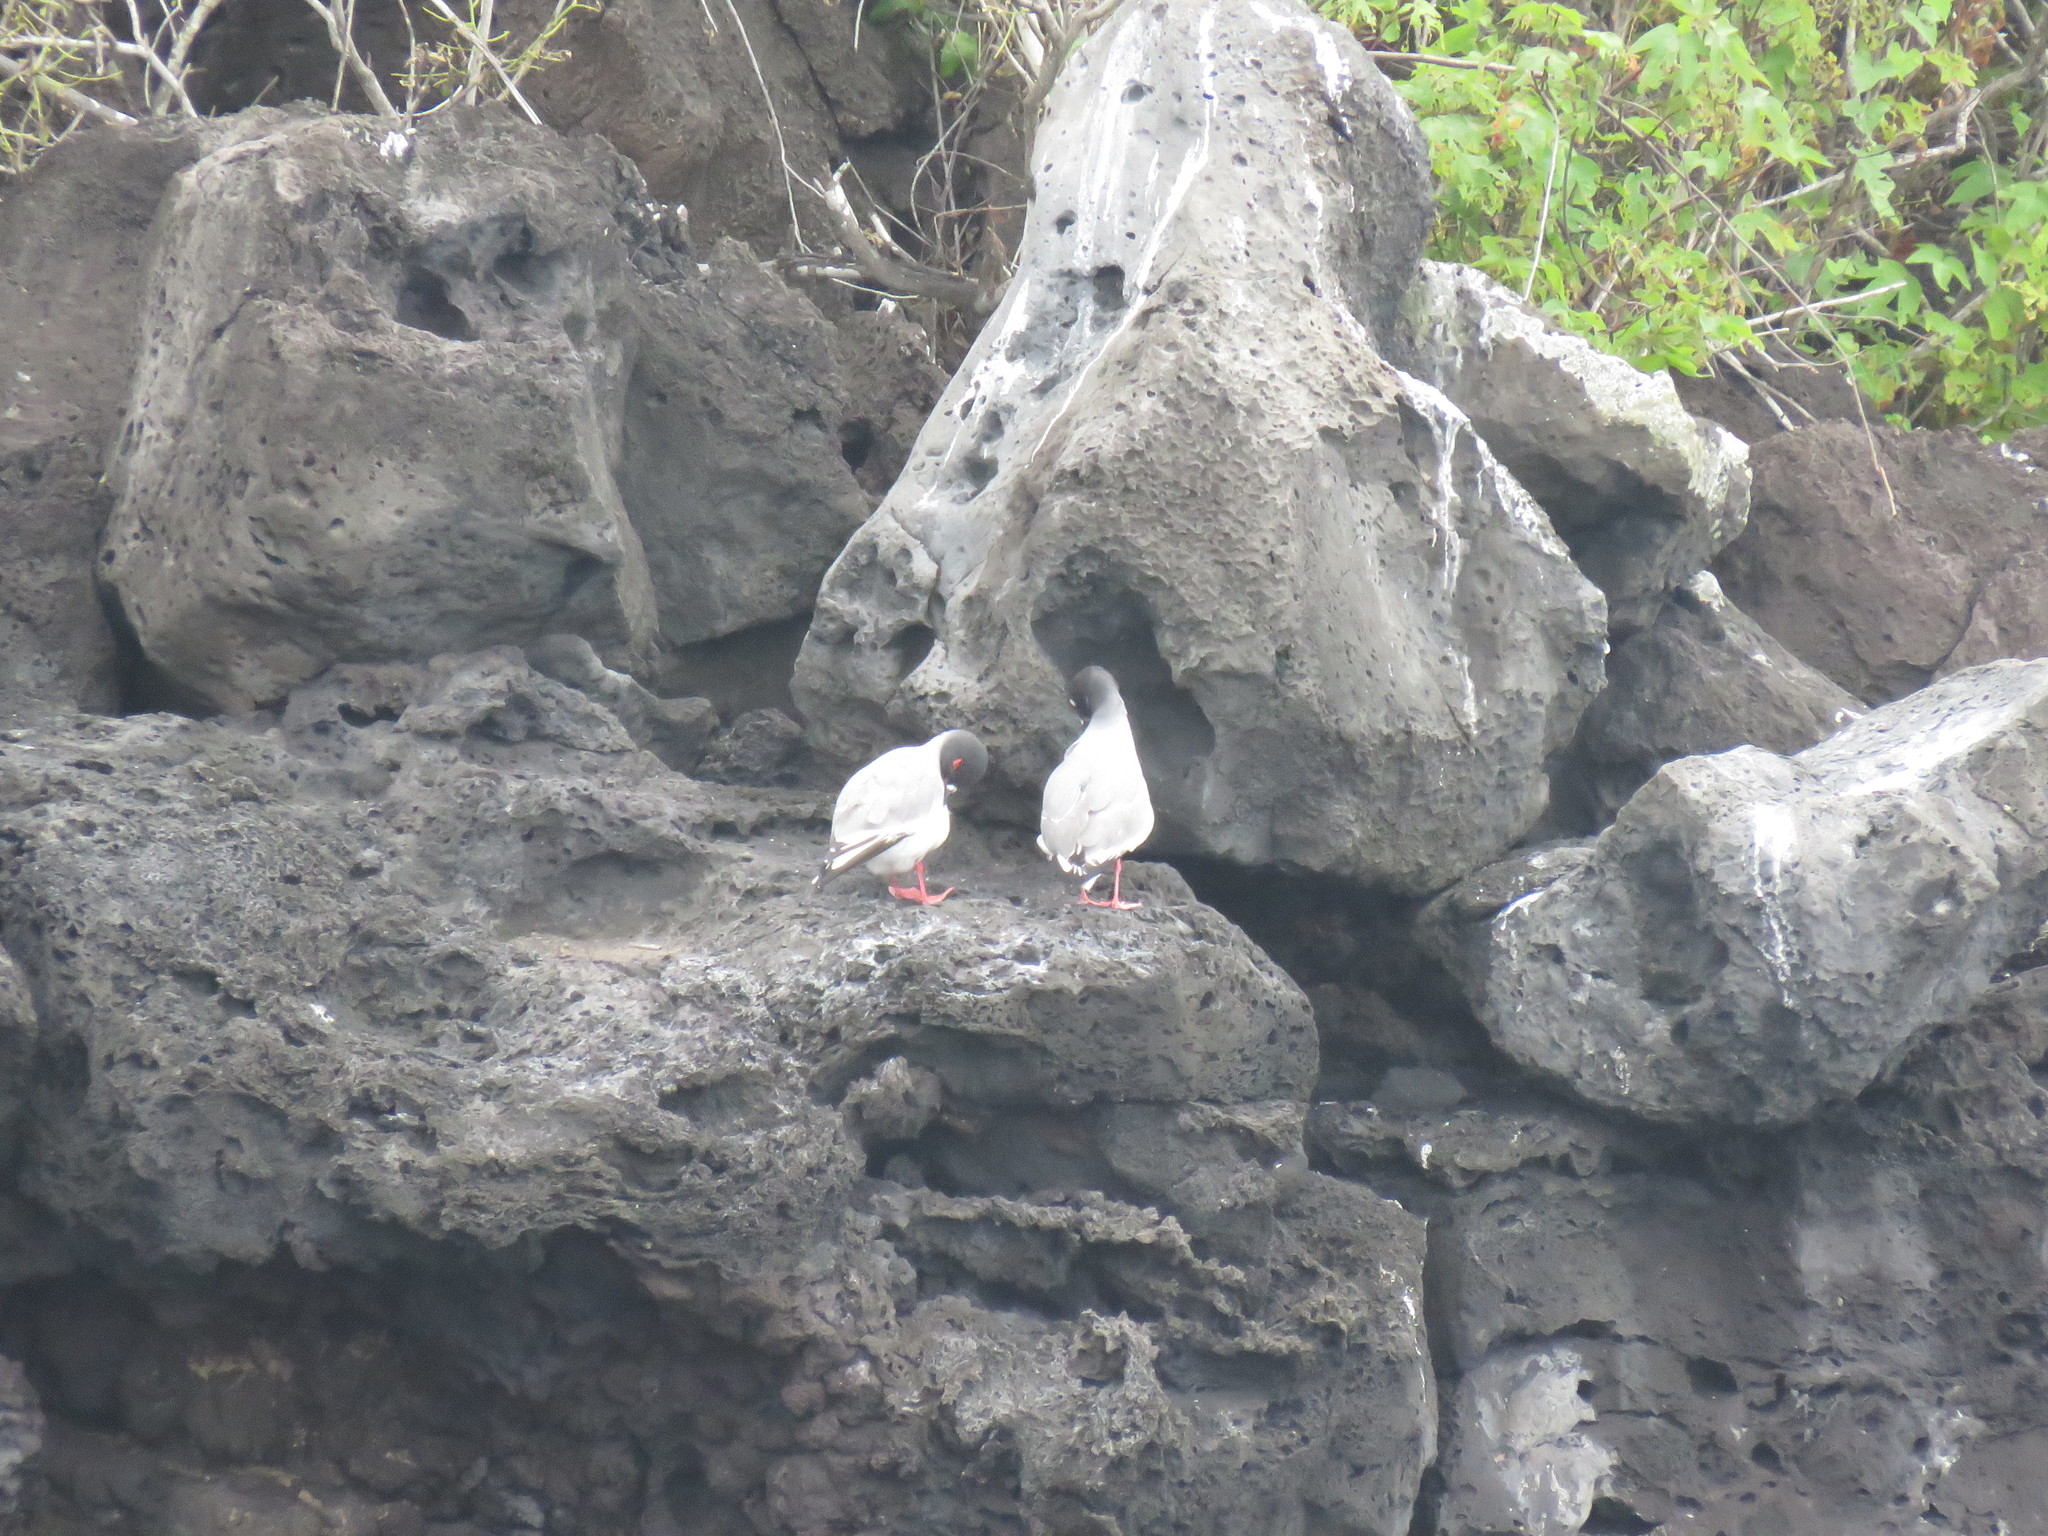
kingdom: Animalia
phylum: Chordata
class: Aves
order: Charadriiformes
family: Laridae
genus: Creagrus
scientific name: Creagrus furcatus
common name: Swallow-tailed gull
